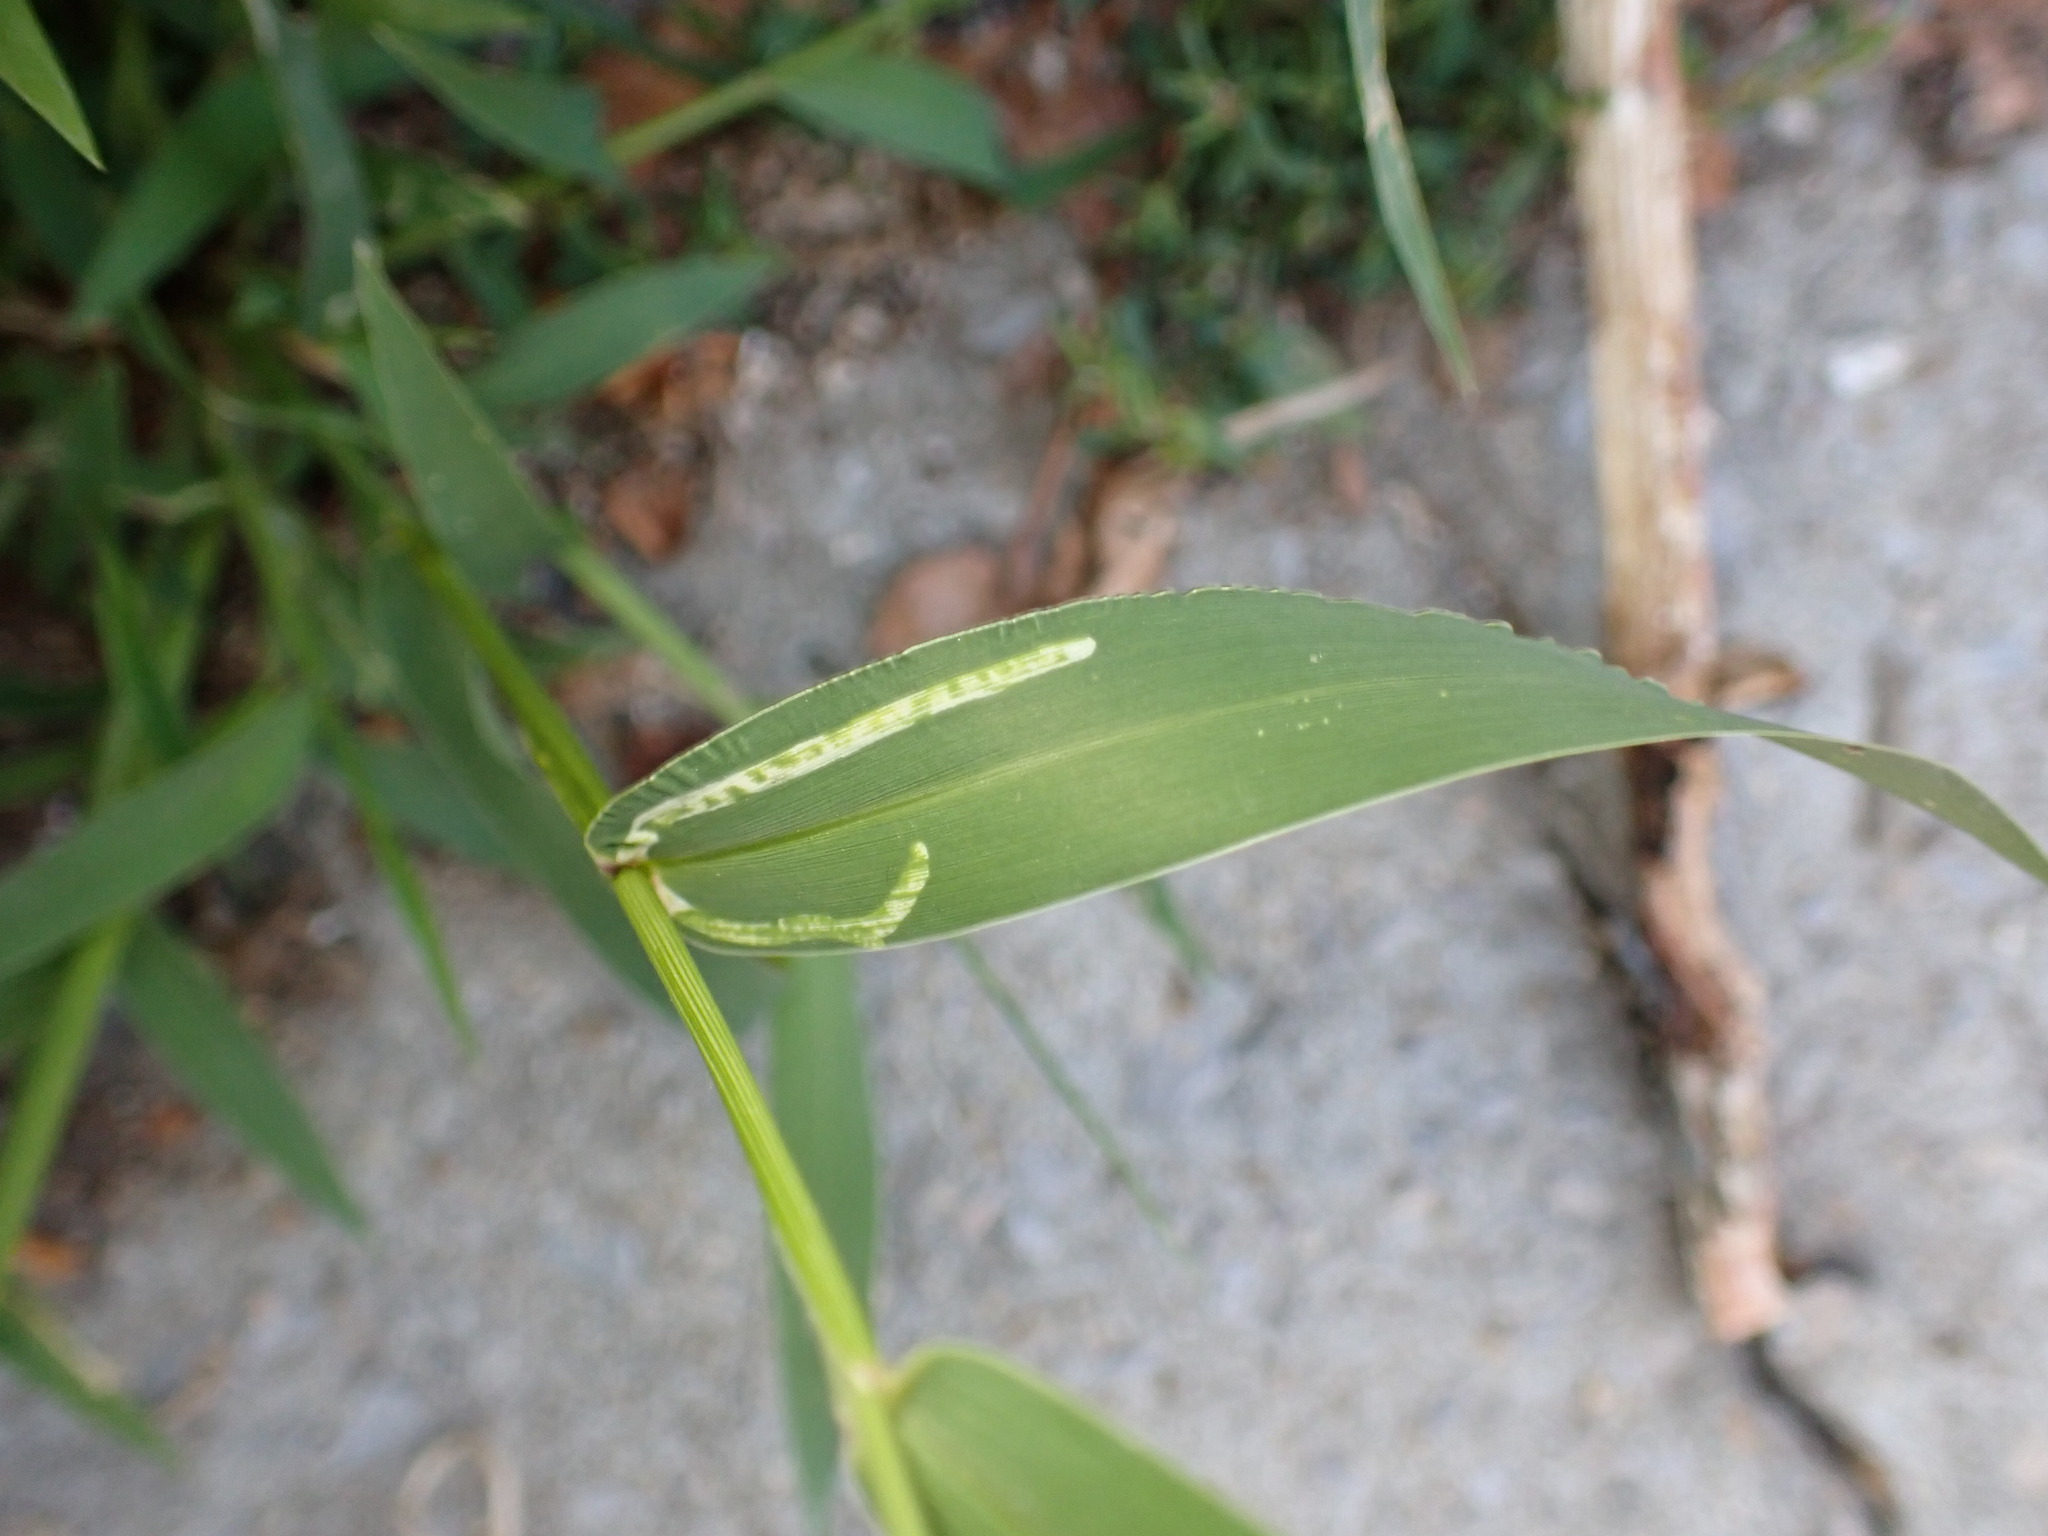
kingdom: Animalia
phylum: Arthropoda
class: Insecta
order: Diptera
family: Agromyzidae
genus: Cerodontha
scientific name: Cerodontha dorsalis
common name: Grass sheathminer fly
